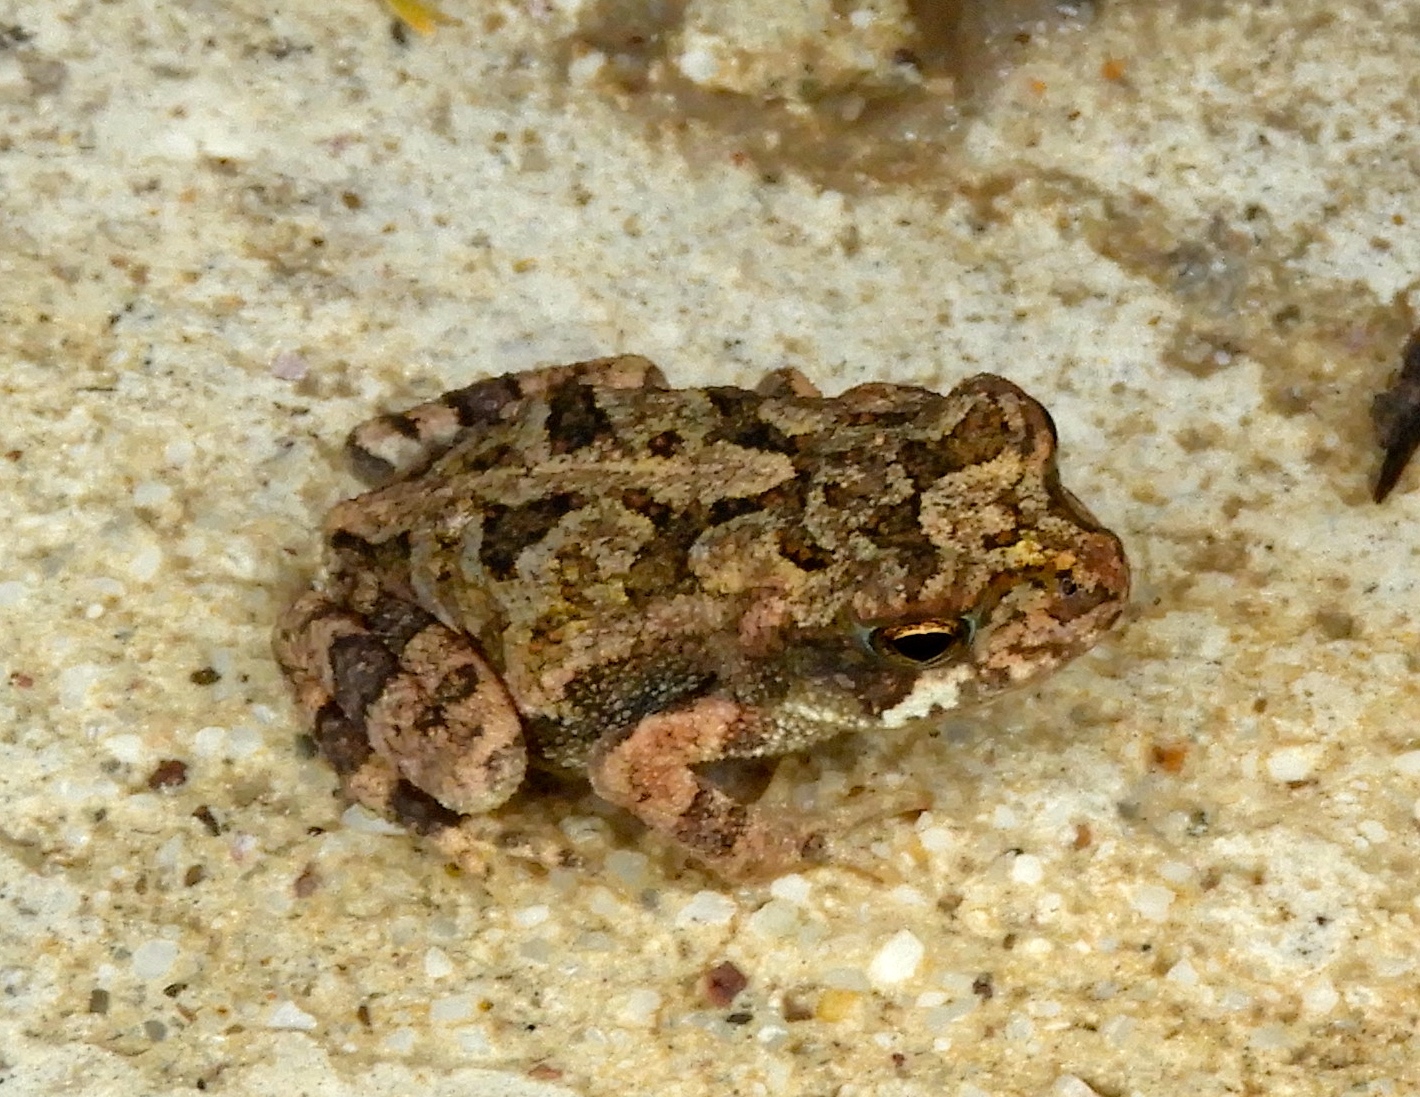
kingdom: Animalia
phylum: Chordata
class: Amphibia
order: Anura
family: Bufonidae
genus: Incilius
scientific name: Incilius mazatlanensis
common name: Sinaloa toad
